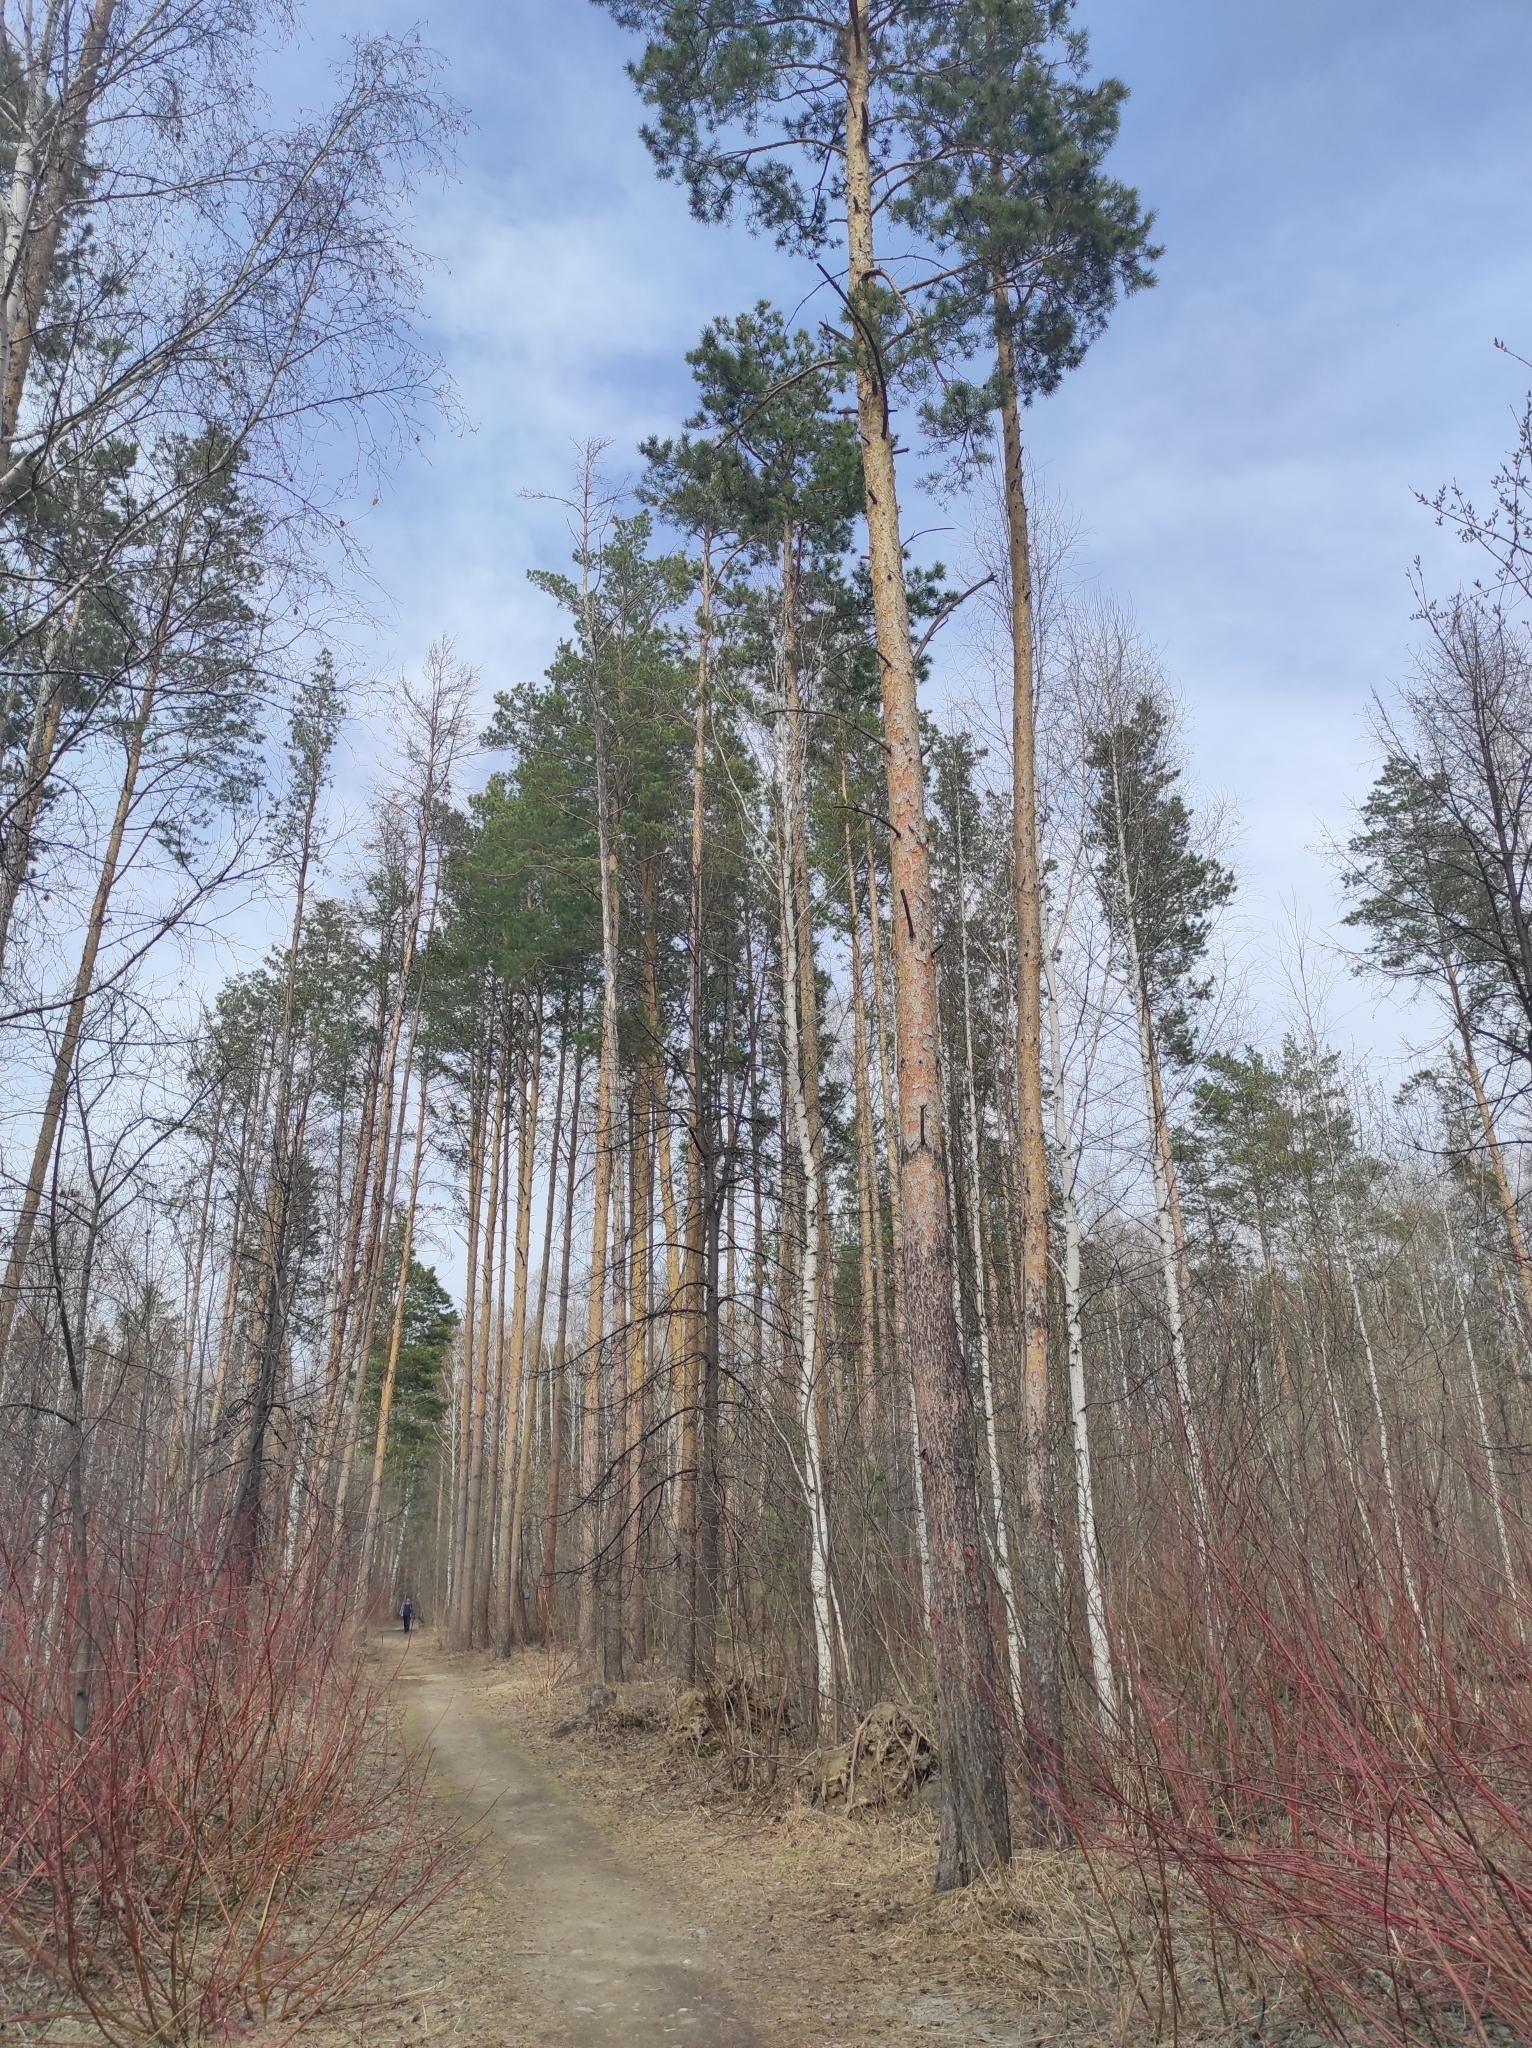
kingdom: Plantae
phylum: Tracheophyta
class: Magnoliopsida
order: Cornales
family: Cornaceae
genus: Cornus
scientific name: Cornus alba
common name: White dogwood
